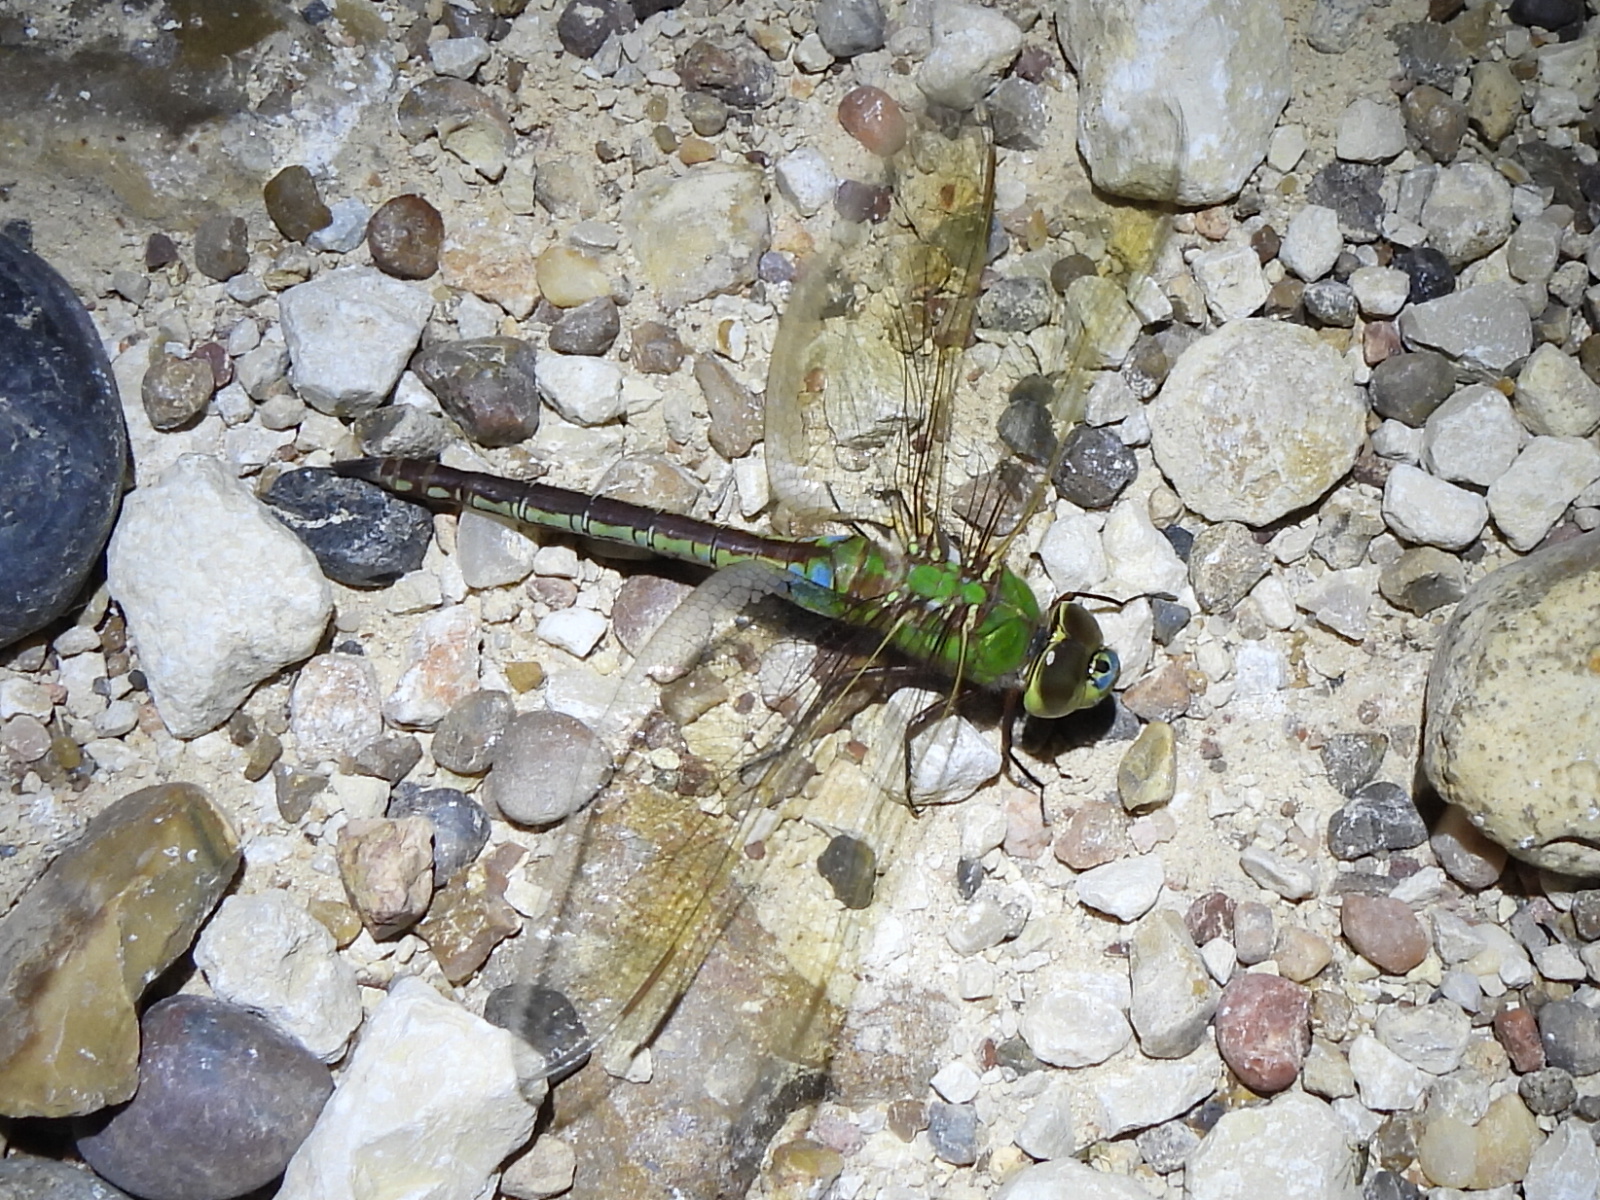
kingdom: Animalia
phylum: Arthropoda
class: Insecta
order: Odonata
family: Aeshnidae
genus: Anax
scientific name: Anax junius
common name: Common green darner
